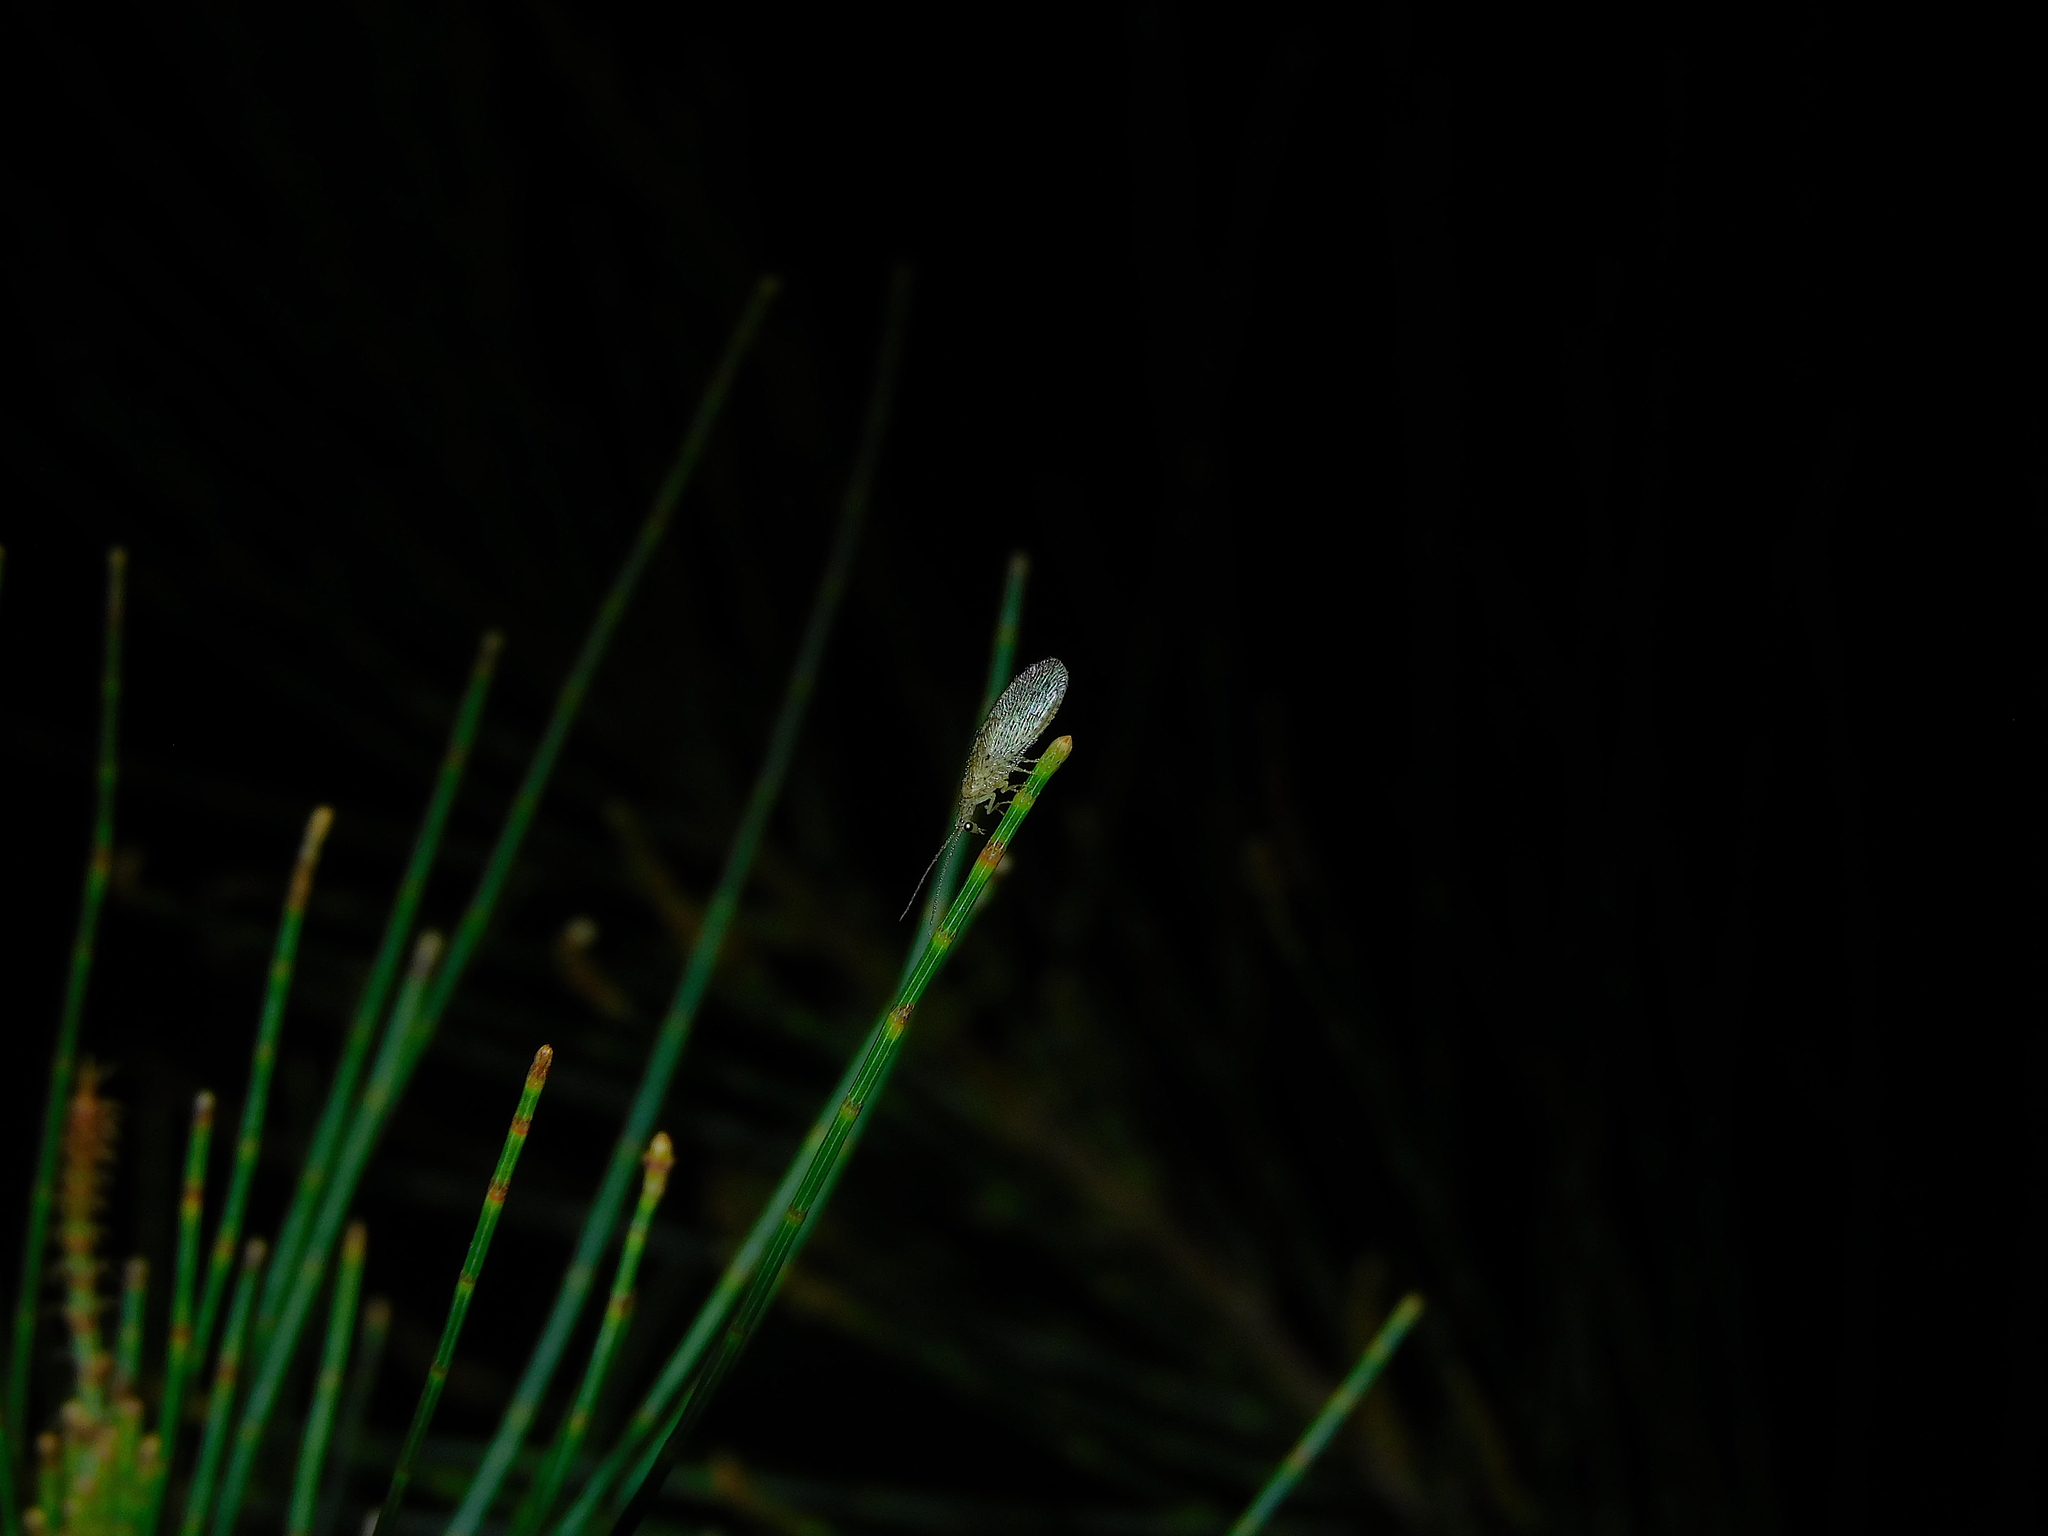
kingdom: Animalia
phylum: Arthropoda
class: Insecta
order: Neuroptera
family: Hemerobiidae
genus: Micromus
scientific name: Micromus tasmaniae
